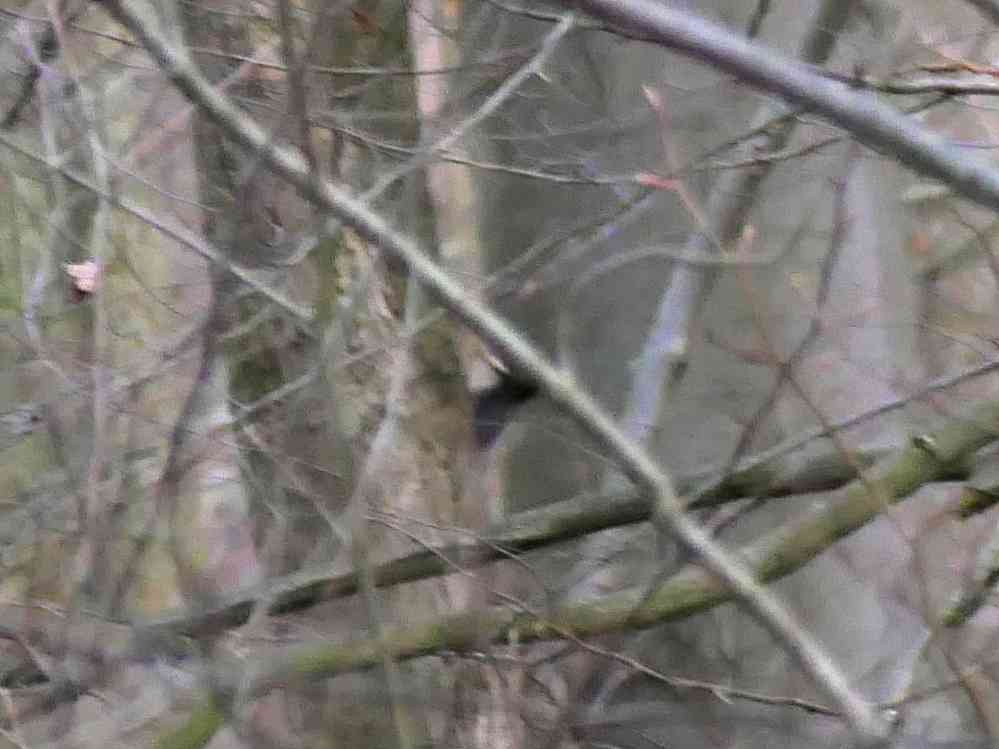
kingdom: Animalia
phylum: Chordata
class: Aves
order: Piciformes
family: Picidae
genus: Dryocopus
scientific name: Dryocopus martius
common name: Black woodpecker
